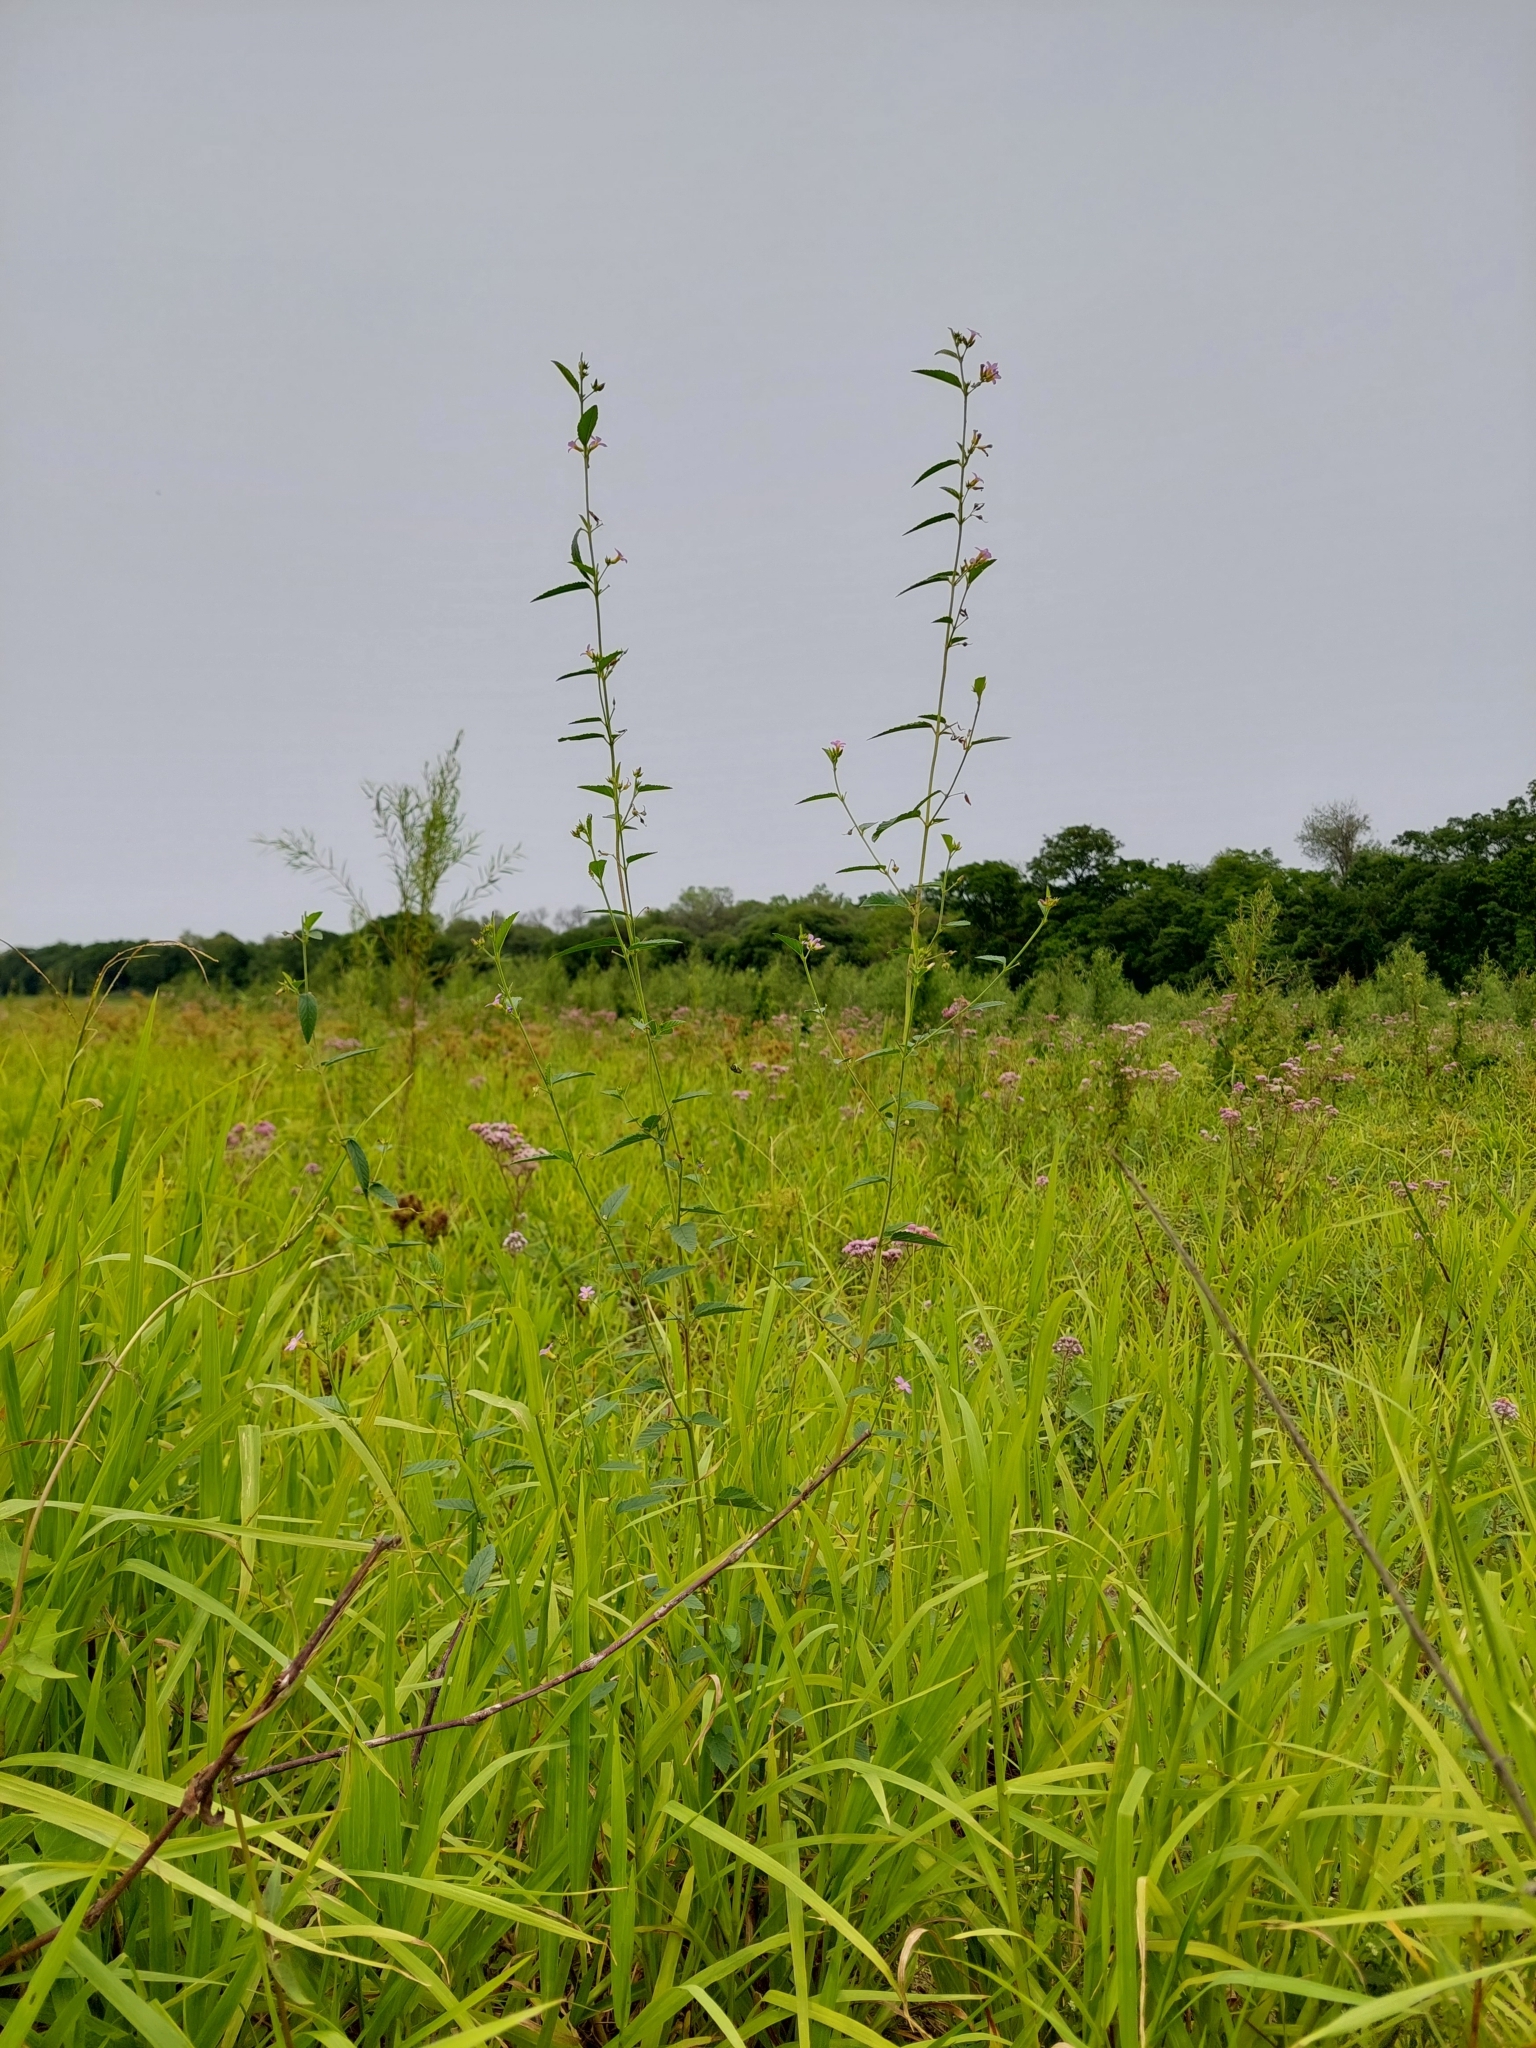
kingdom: Plantae
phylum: Tracheophyta
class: Magnoliopsida
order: Malvales
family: Malvaceae
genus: Melochia
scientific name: Melochia pyramidata
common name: Pyramidflower
